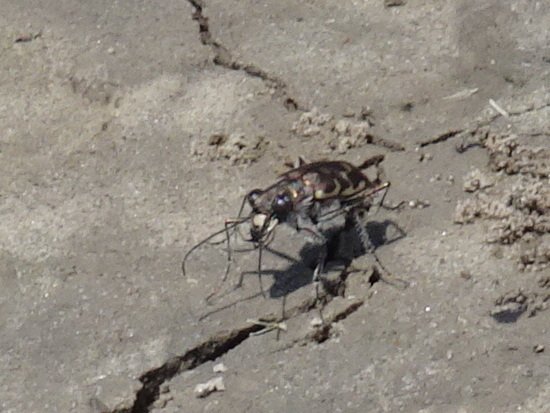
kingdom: Animalia
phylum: Arthropoda
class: Insecta
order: Coleoptera
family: Carabidae
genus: Cicindela
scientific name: Cicindela repanda
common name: Bronzed tiger beetle
